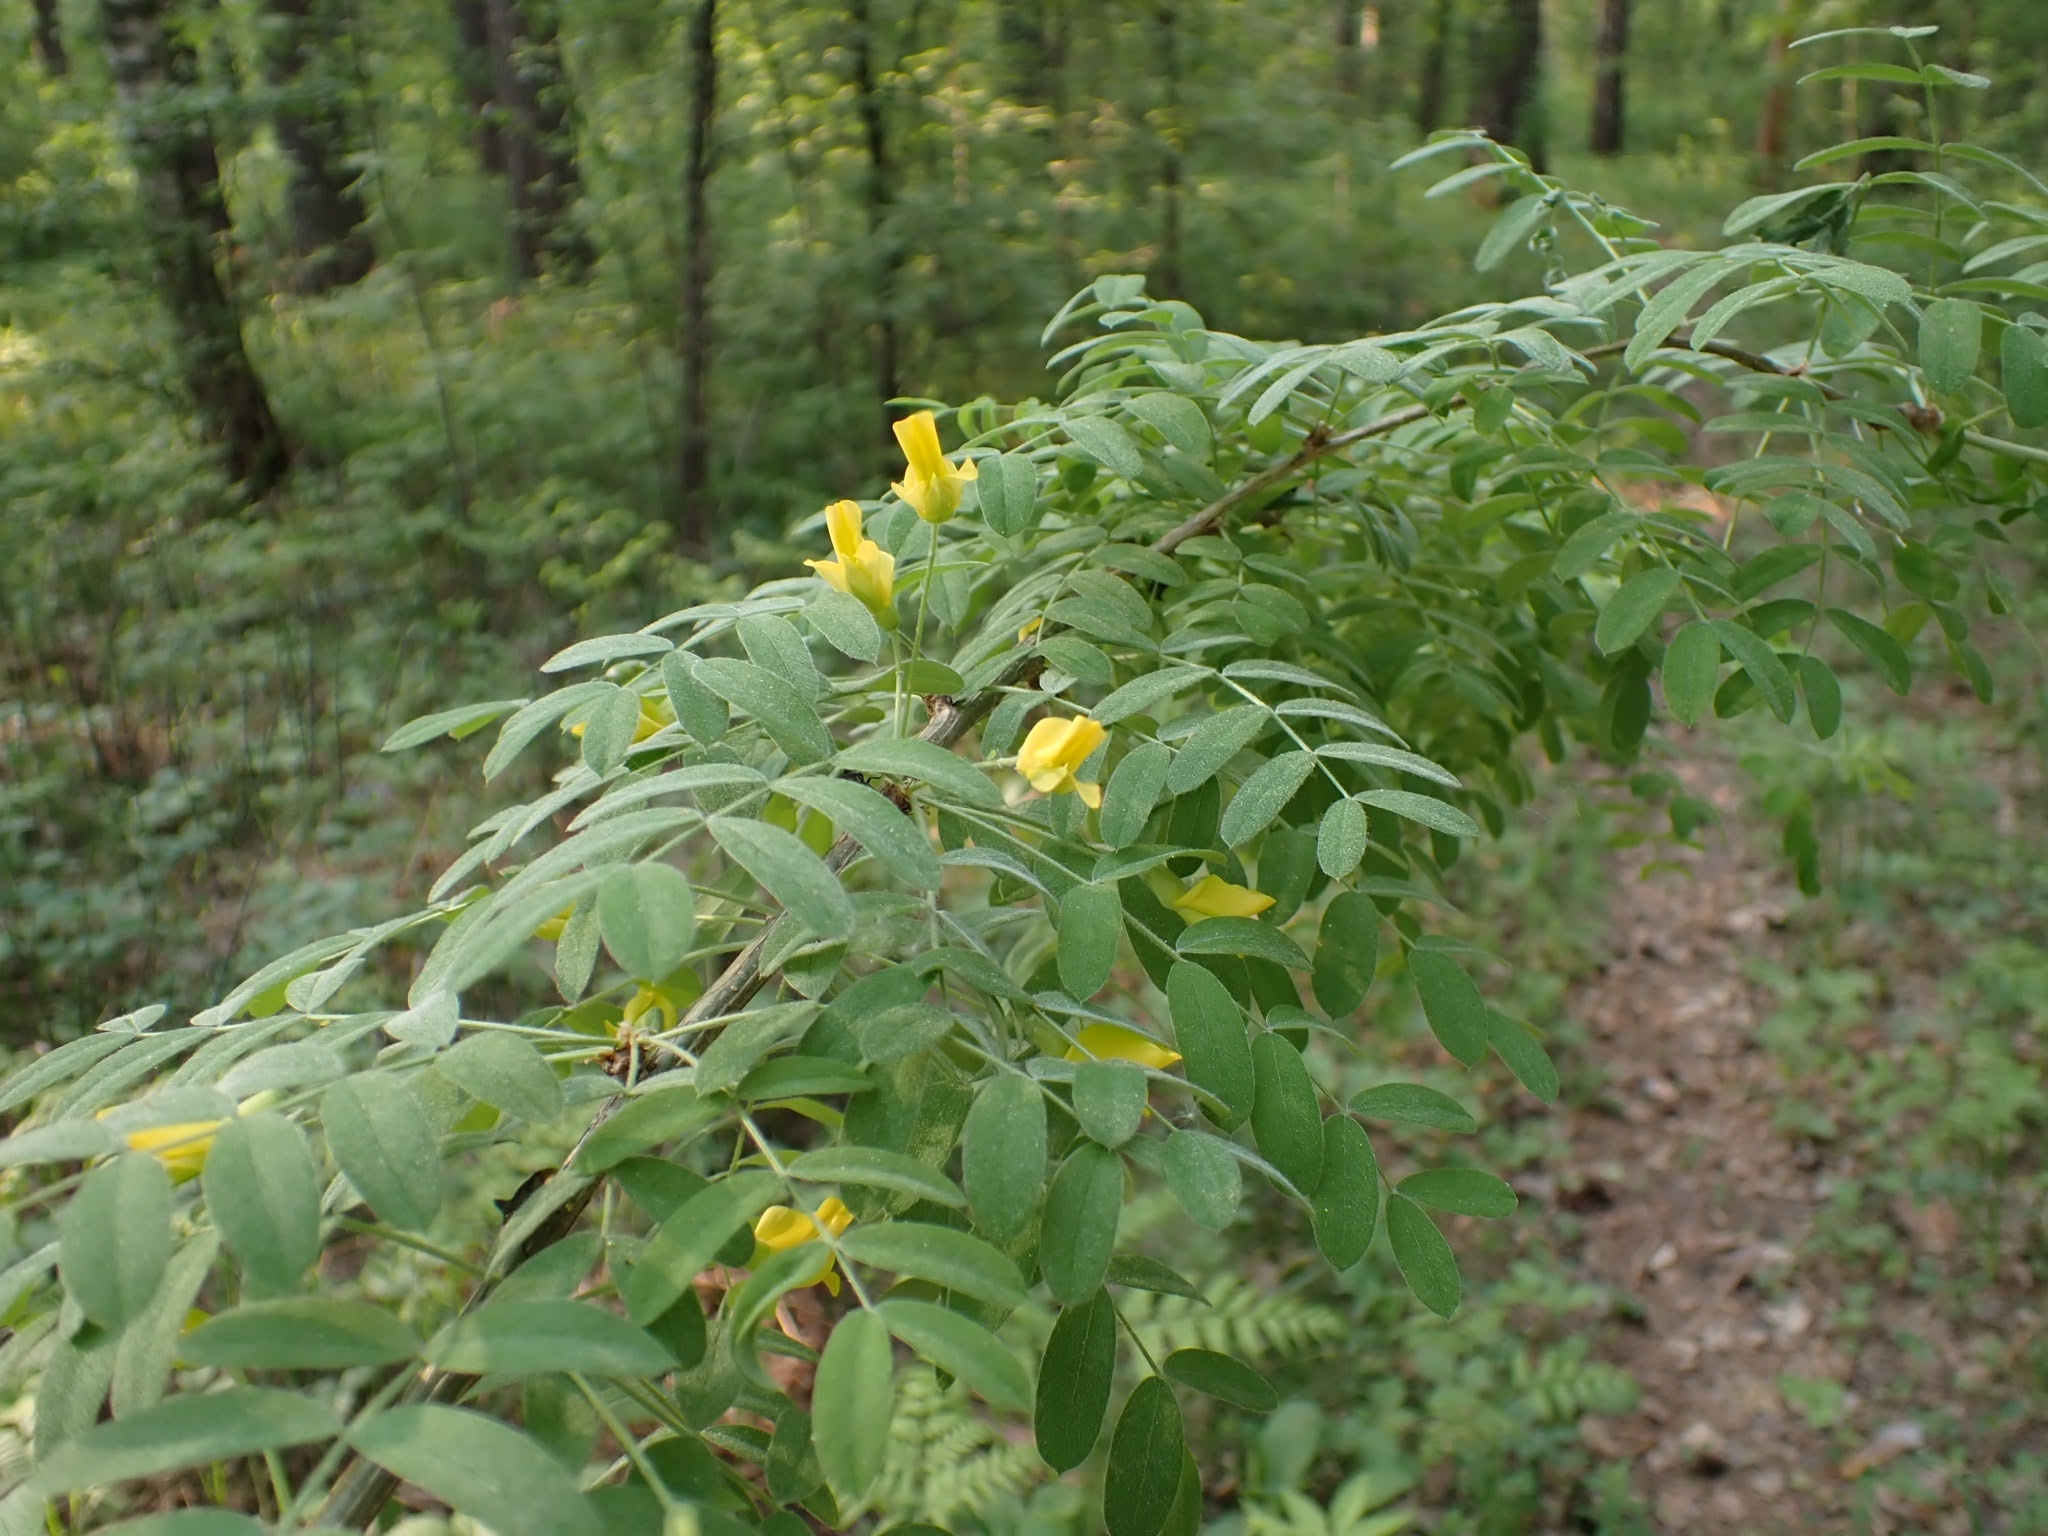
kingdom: Plantae
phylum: Tracheophyta
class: Magnoliopsida
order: Fabales
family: Fabaceae
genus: Caragana
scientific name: Caragana arborescens
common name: Siberian peashrub
